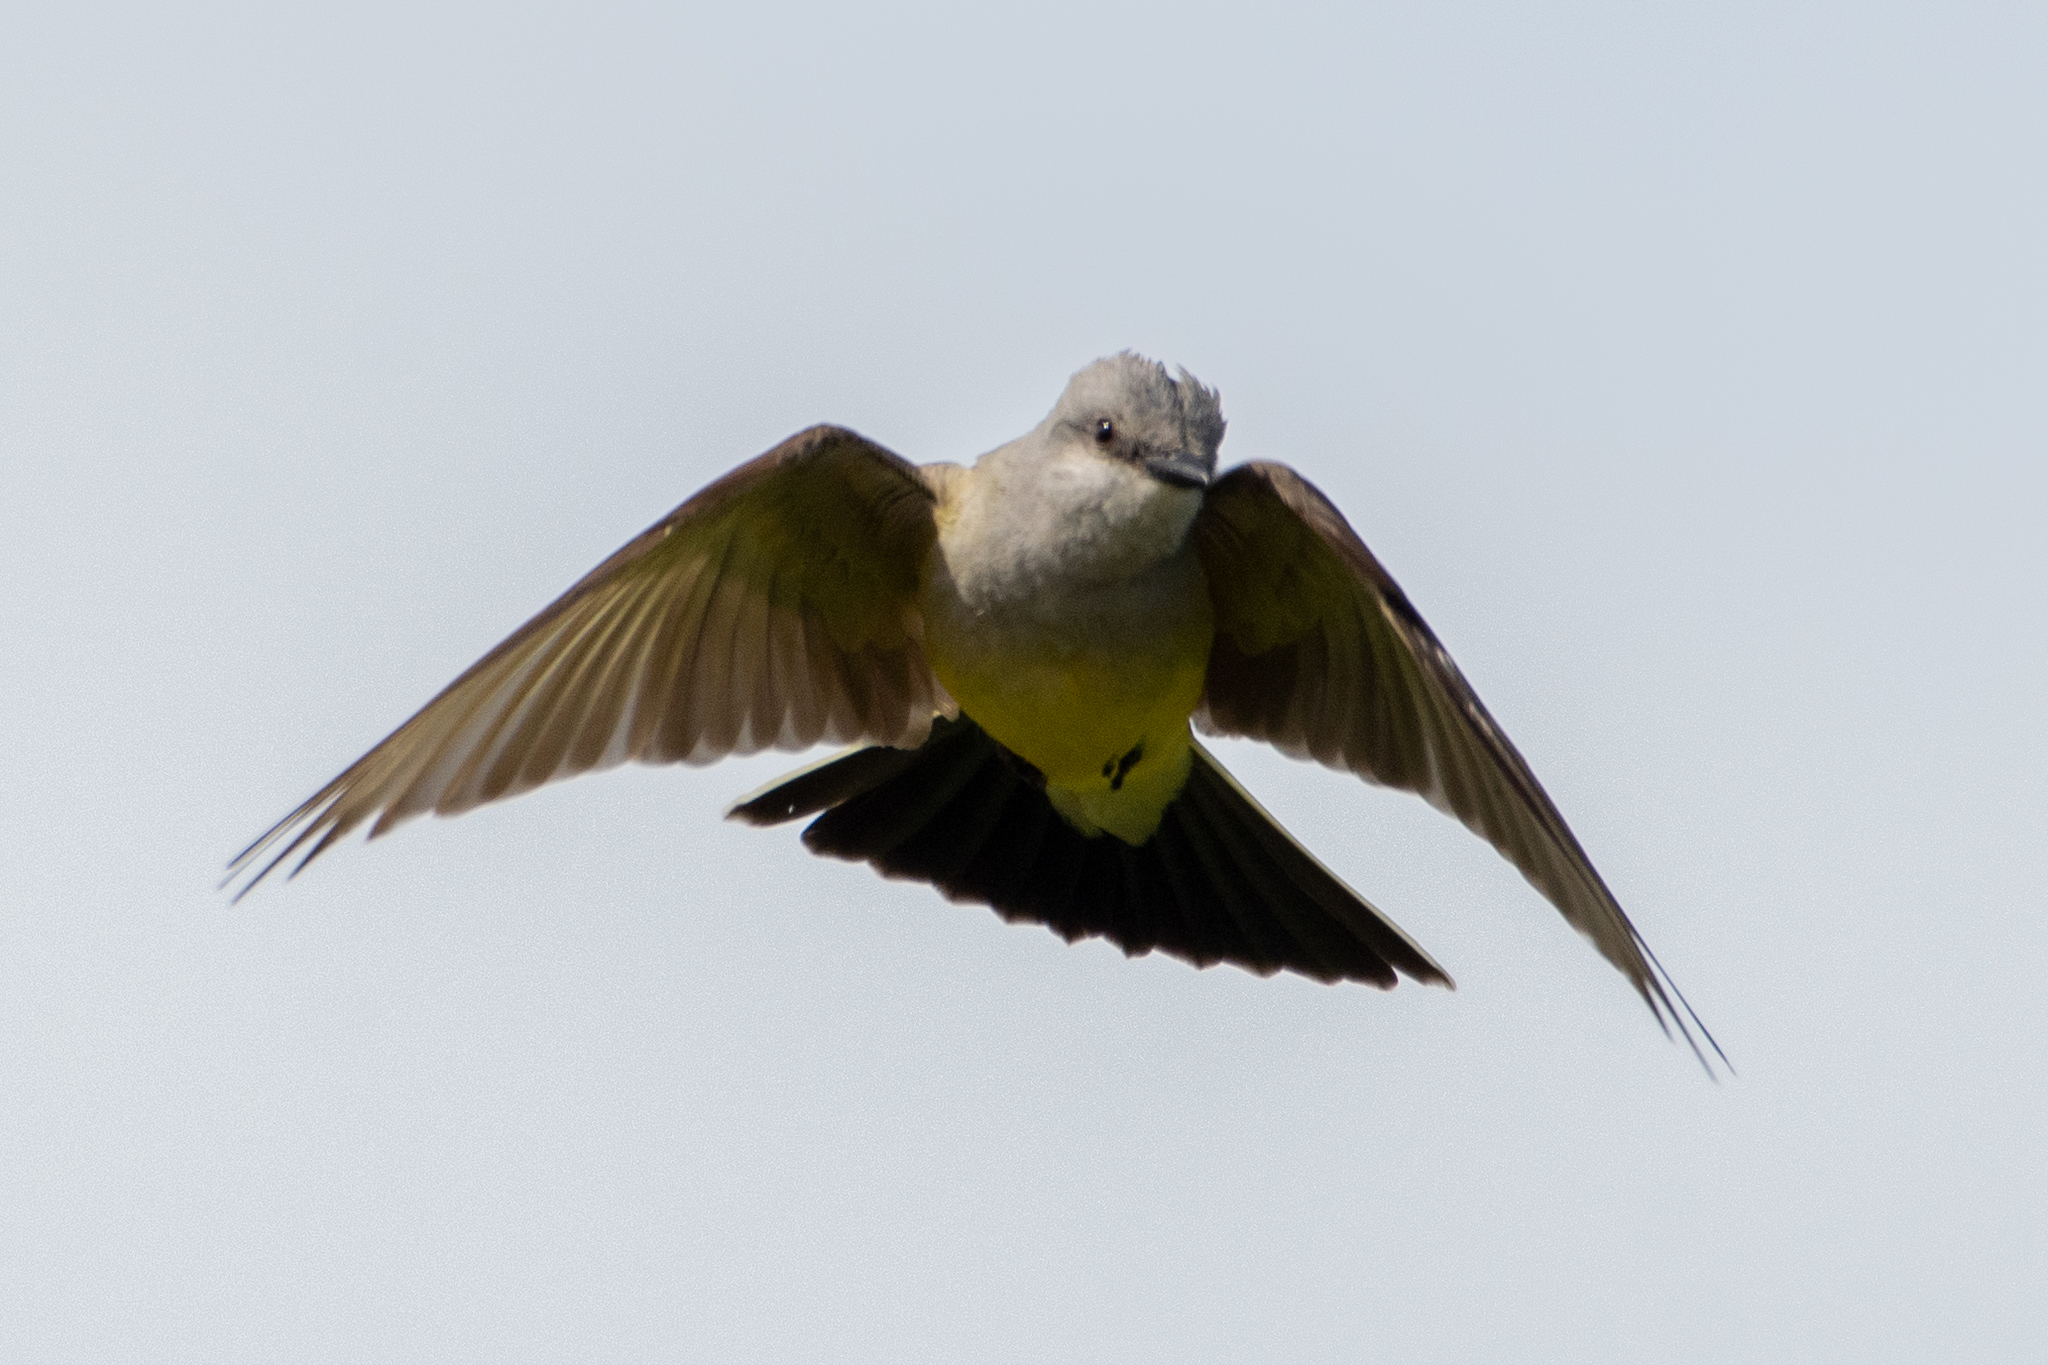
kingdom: Animalia
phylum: Chordata
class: Aves
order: Passeriformes
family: Tyrannidae
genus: Tyrannus
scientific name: Tyrannus verticalis
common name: Western kingbird
